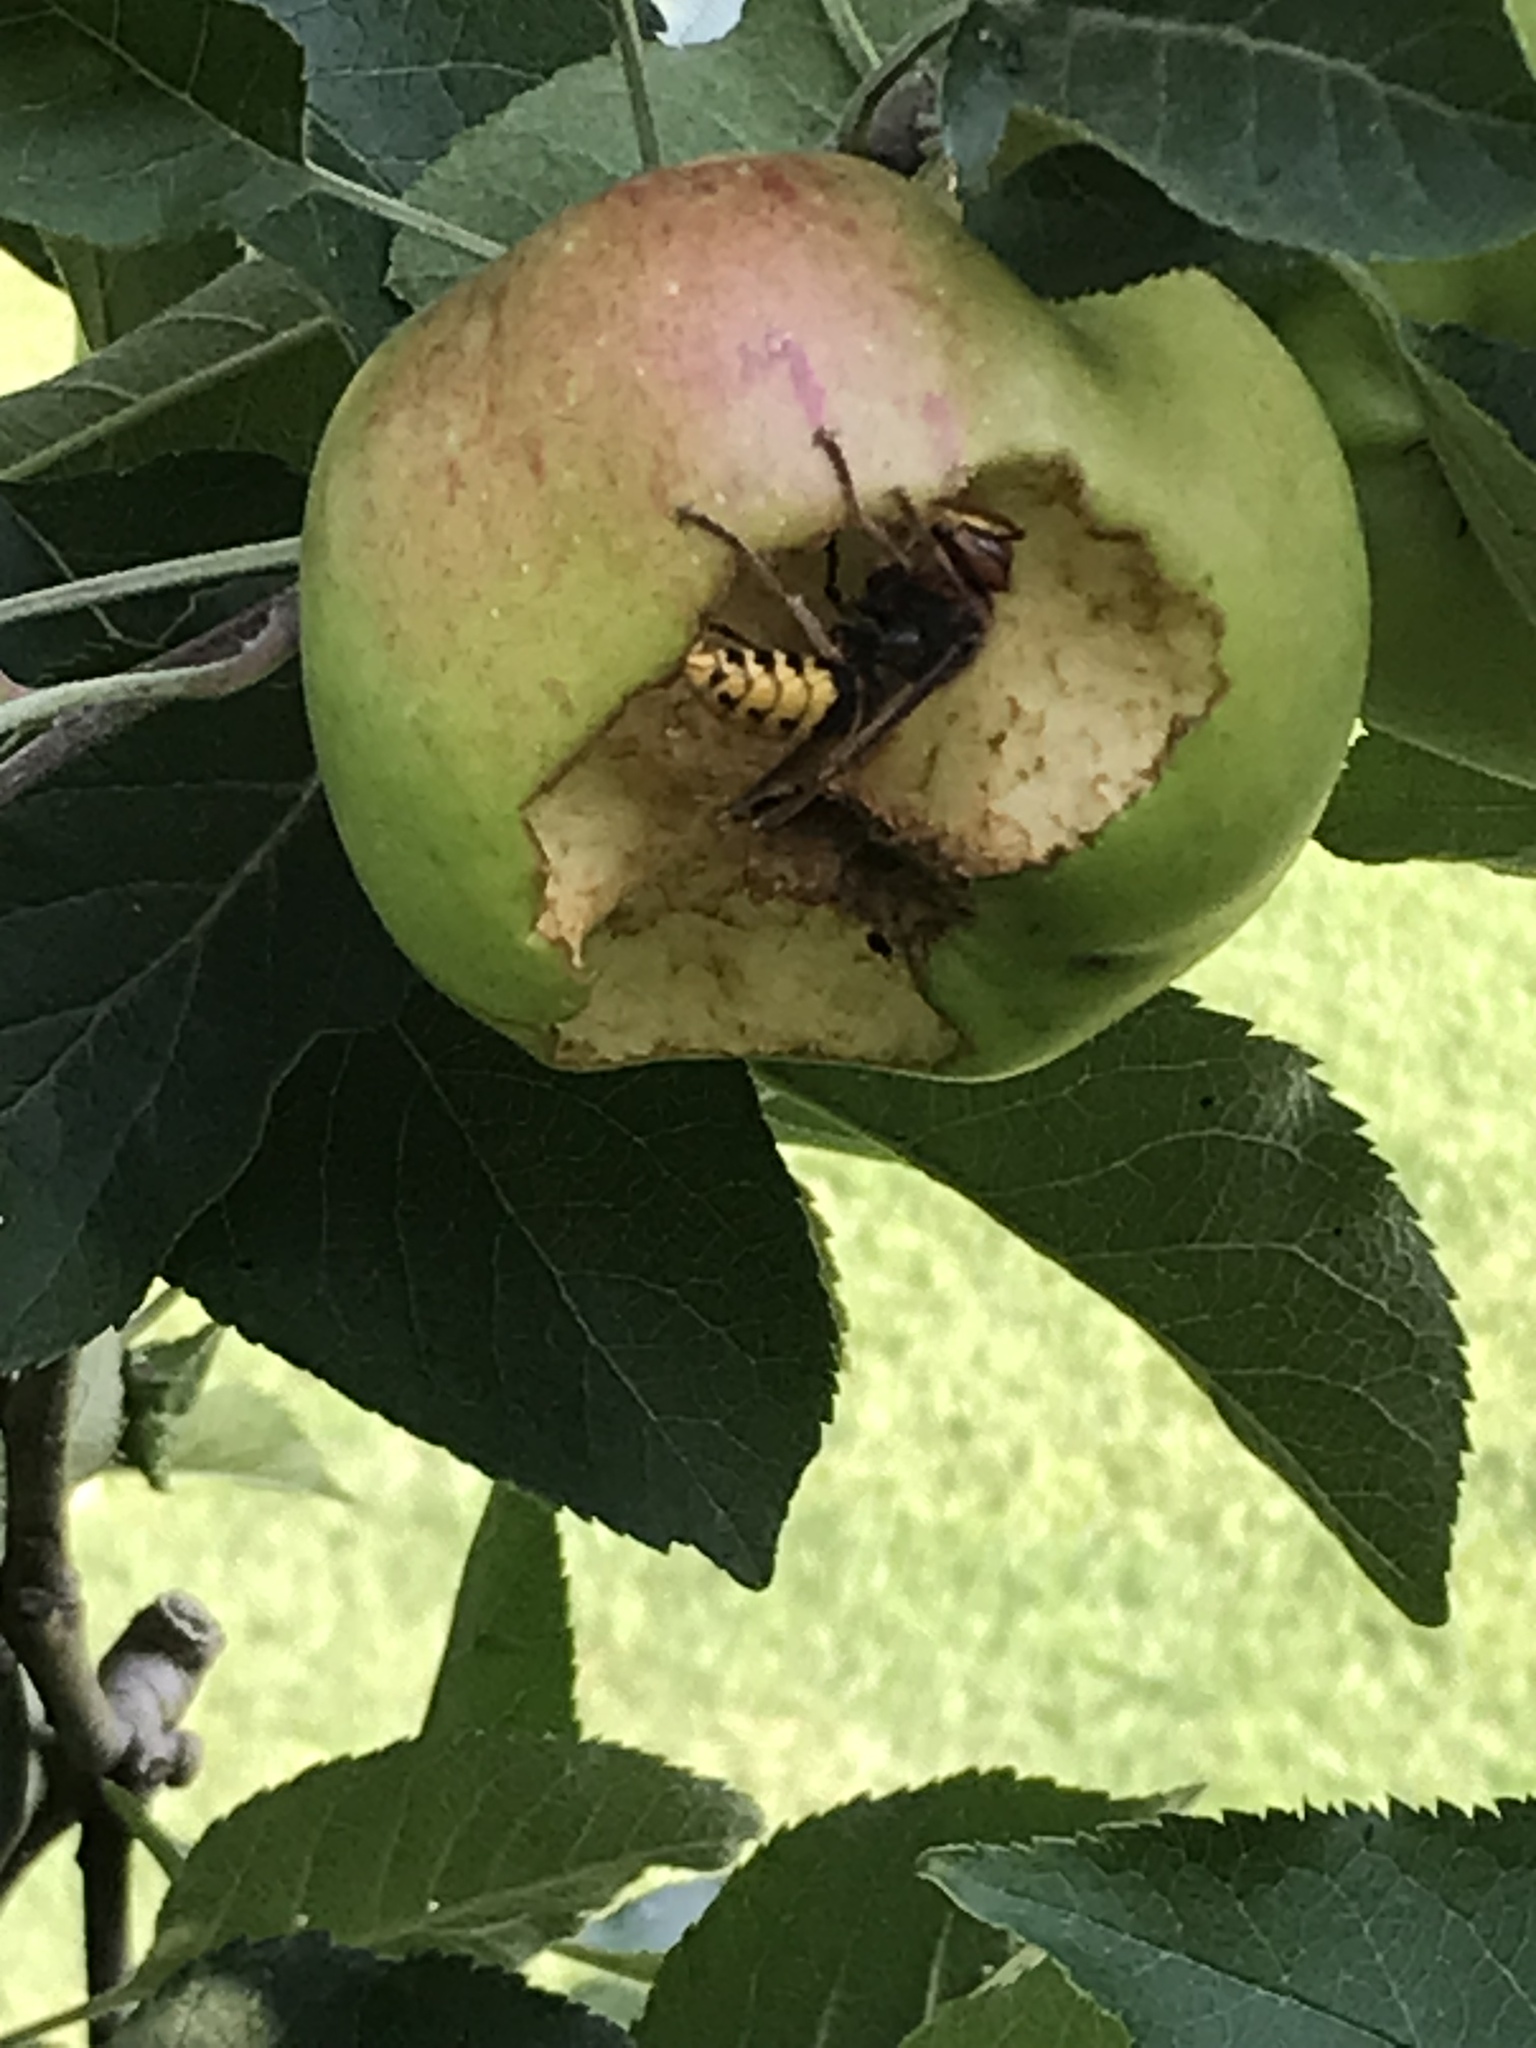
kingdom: Animalia
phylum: Arthropoda
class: Insecta
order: Hymenoptera
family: Vespidae
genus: Vespa
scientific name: Vespa crabro
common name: Hornet
